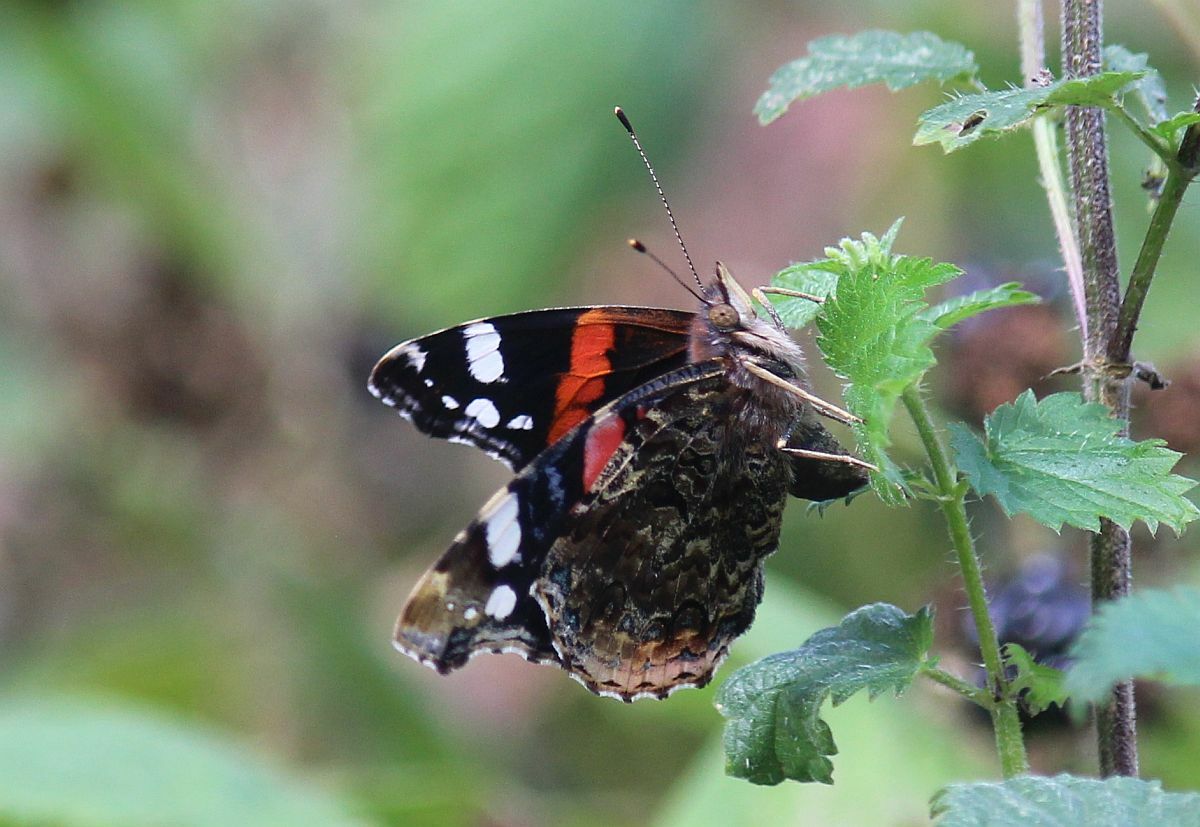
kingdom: Animalia
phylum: Arthropoda
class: Insecta
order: Lepidoptera
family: Nymphalidae
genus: Vanessa
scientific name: Vanessa atalanta
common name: Red admiral
